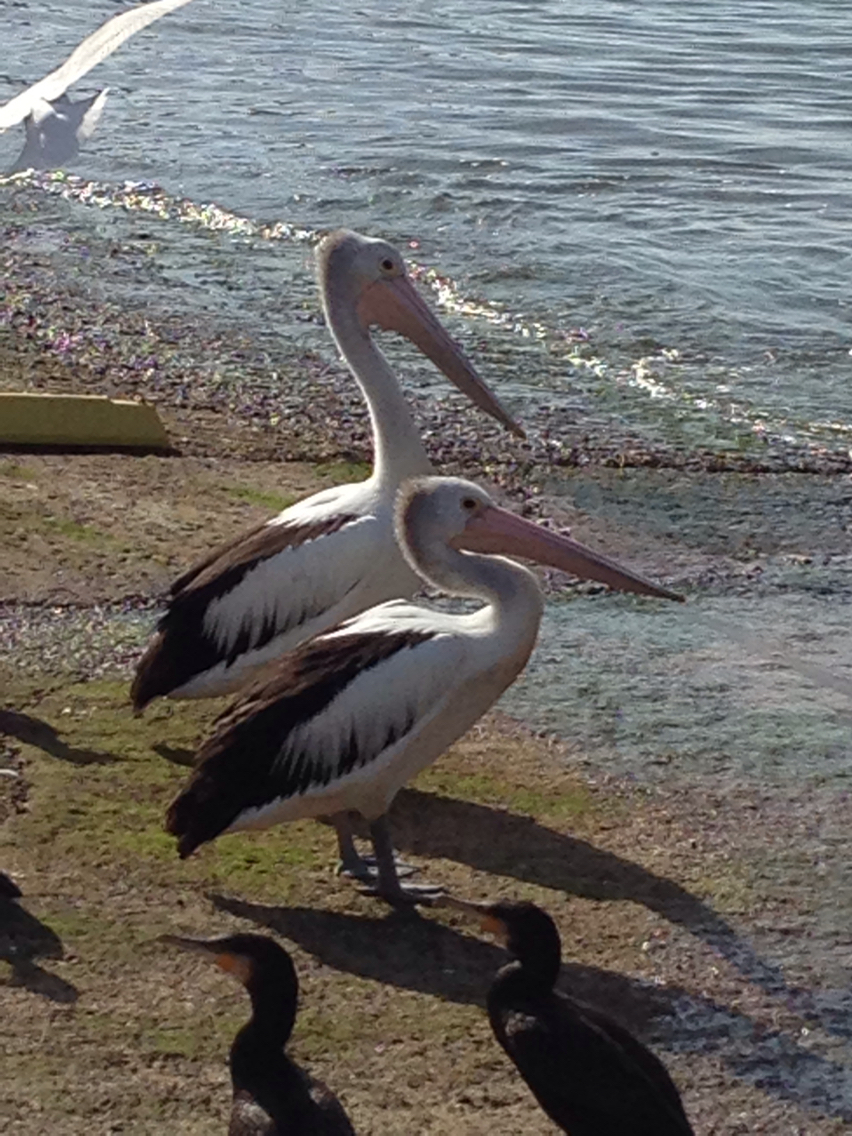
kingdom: Animalia
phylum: Chordata
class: Aves
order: Pelecaniformes
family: Pelecanidae
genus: Pelecanus
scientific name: Pelecanus conspicillatus
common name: Australian pelican
